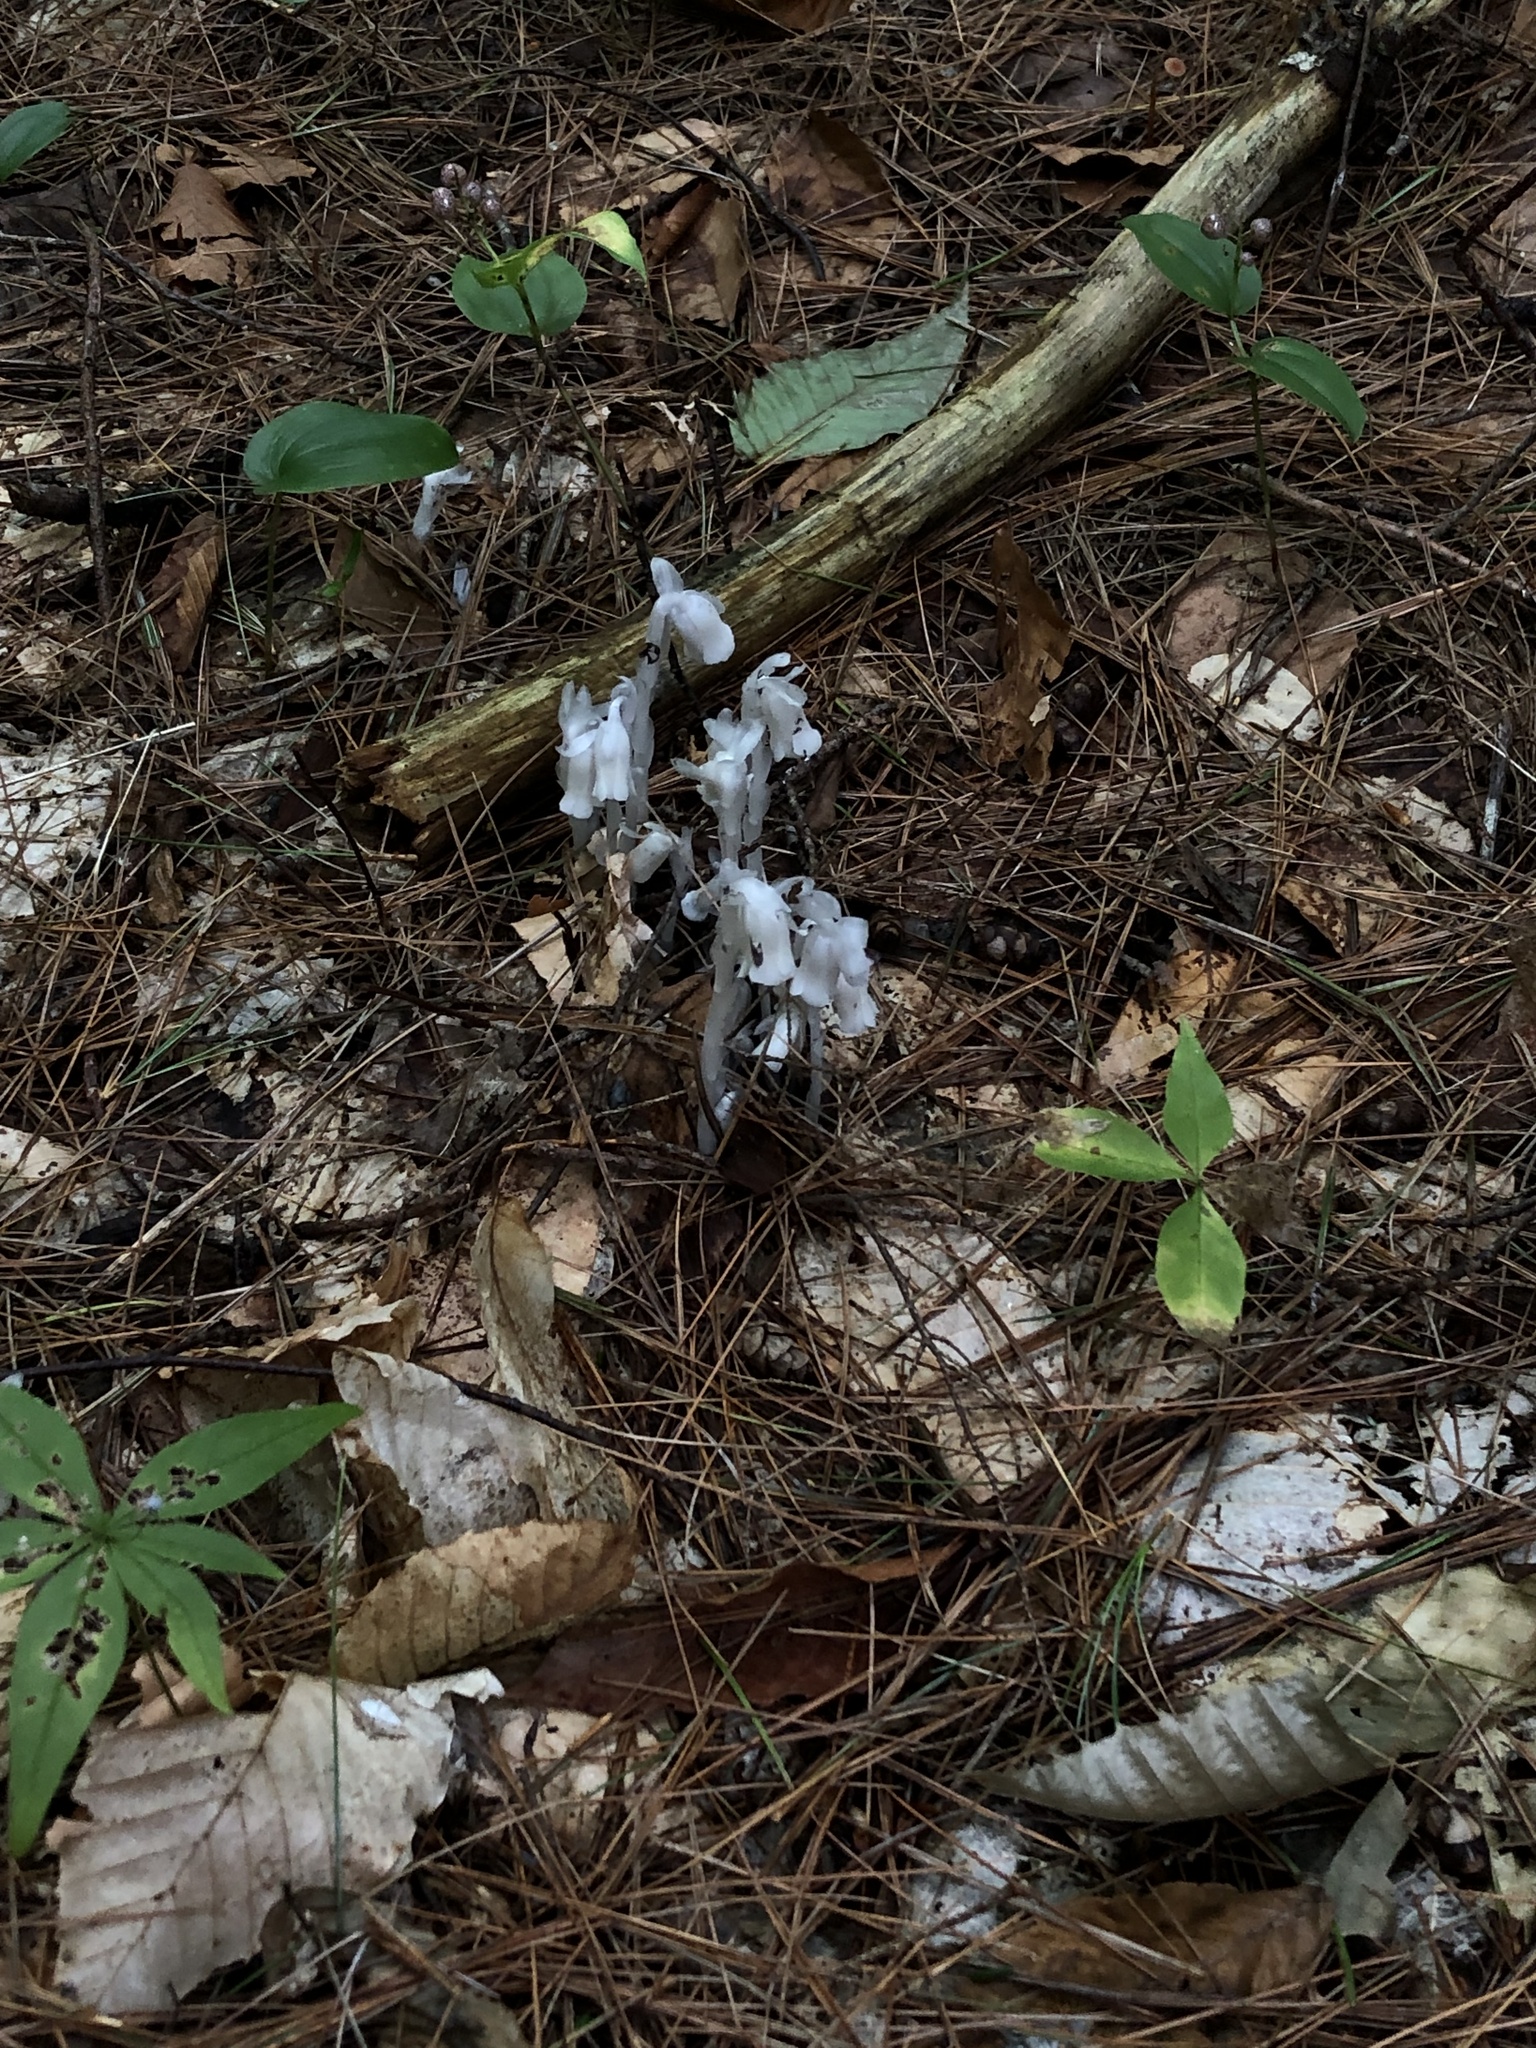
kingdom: Plantae
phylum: Tracheophyta
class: Magnoliopsida
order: Ericales
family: Ericaceae
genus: Monotropa
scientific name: Monotropa uniflora
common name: Convulsion root
